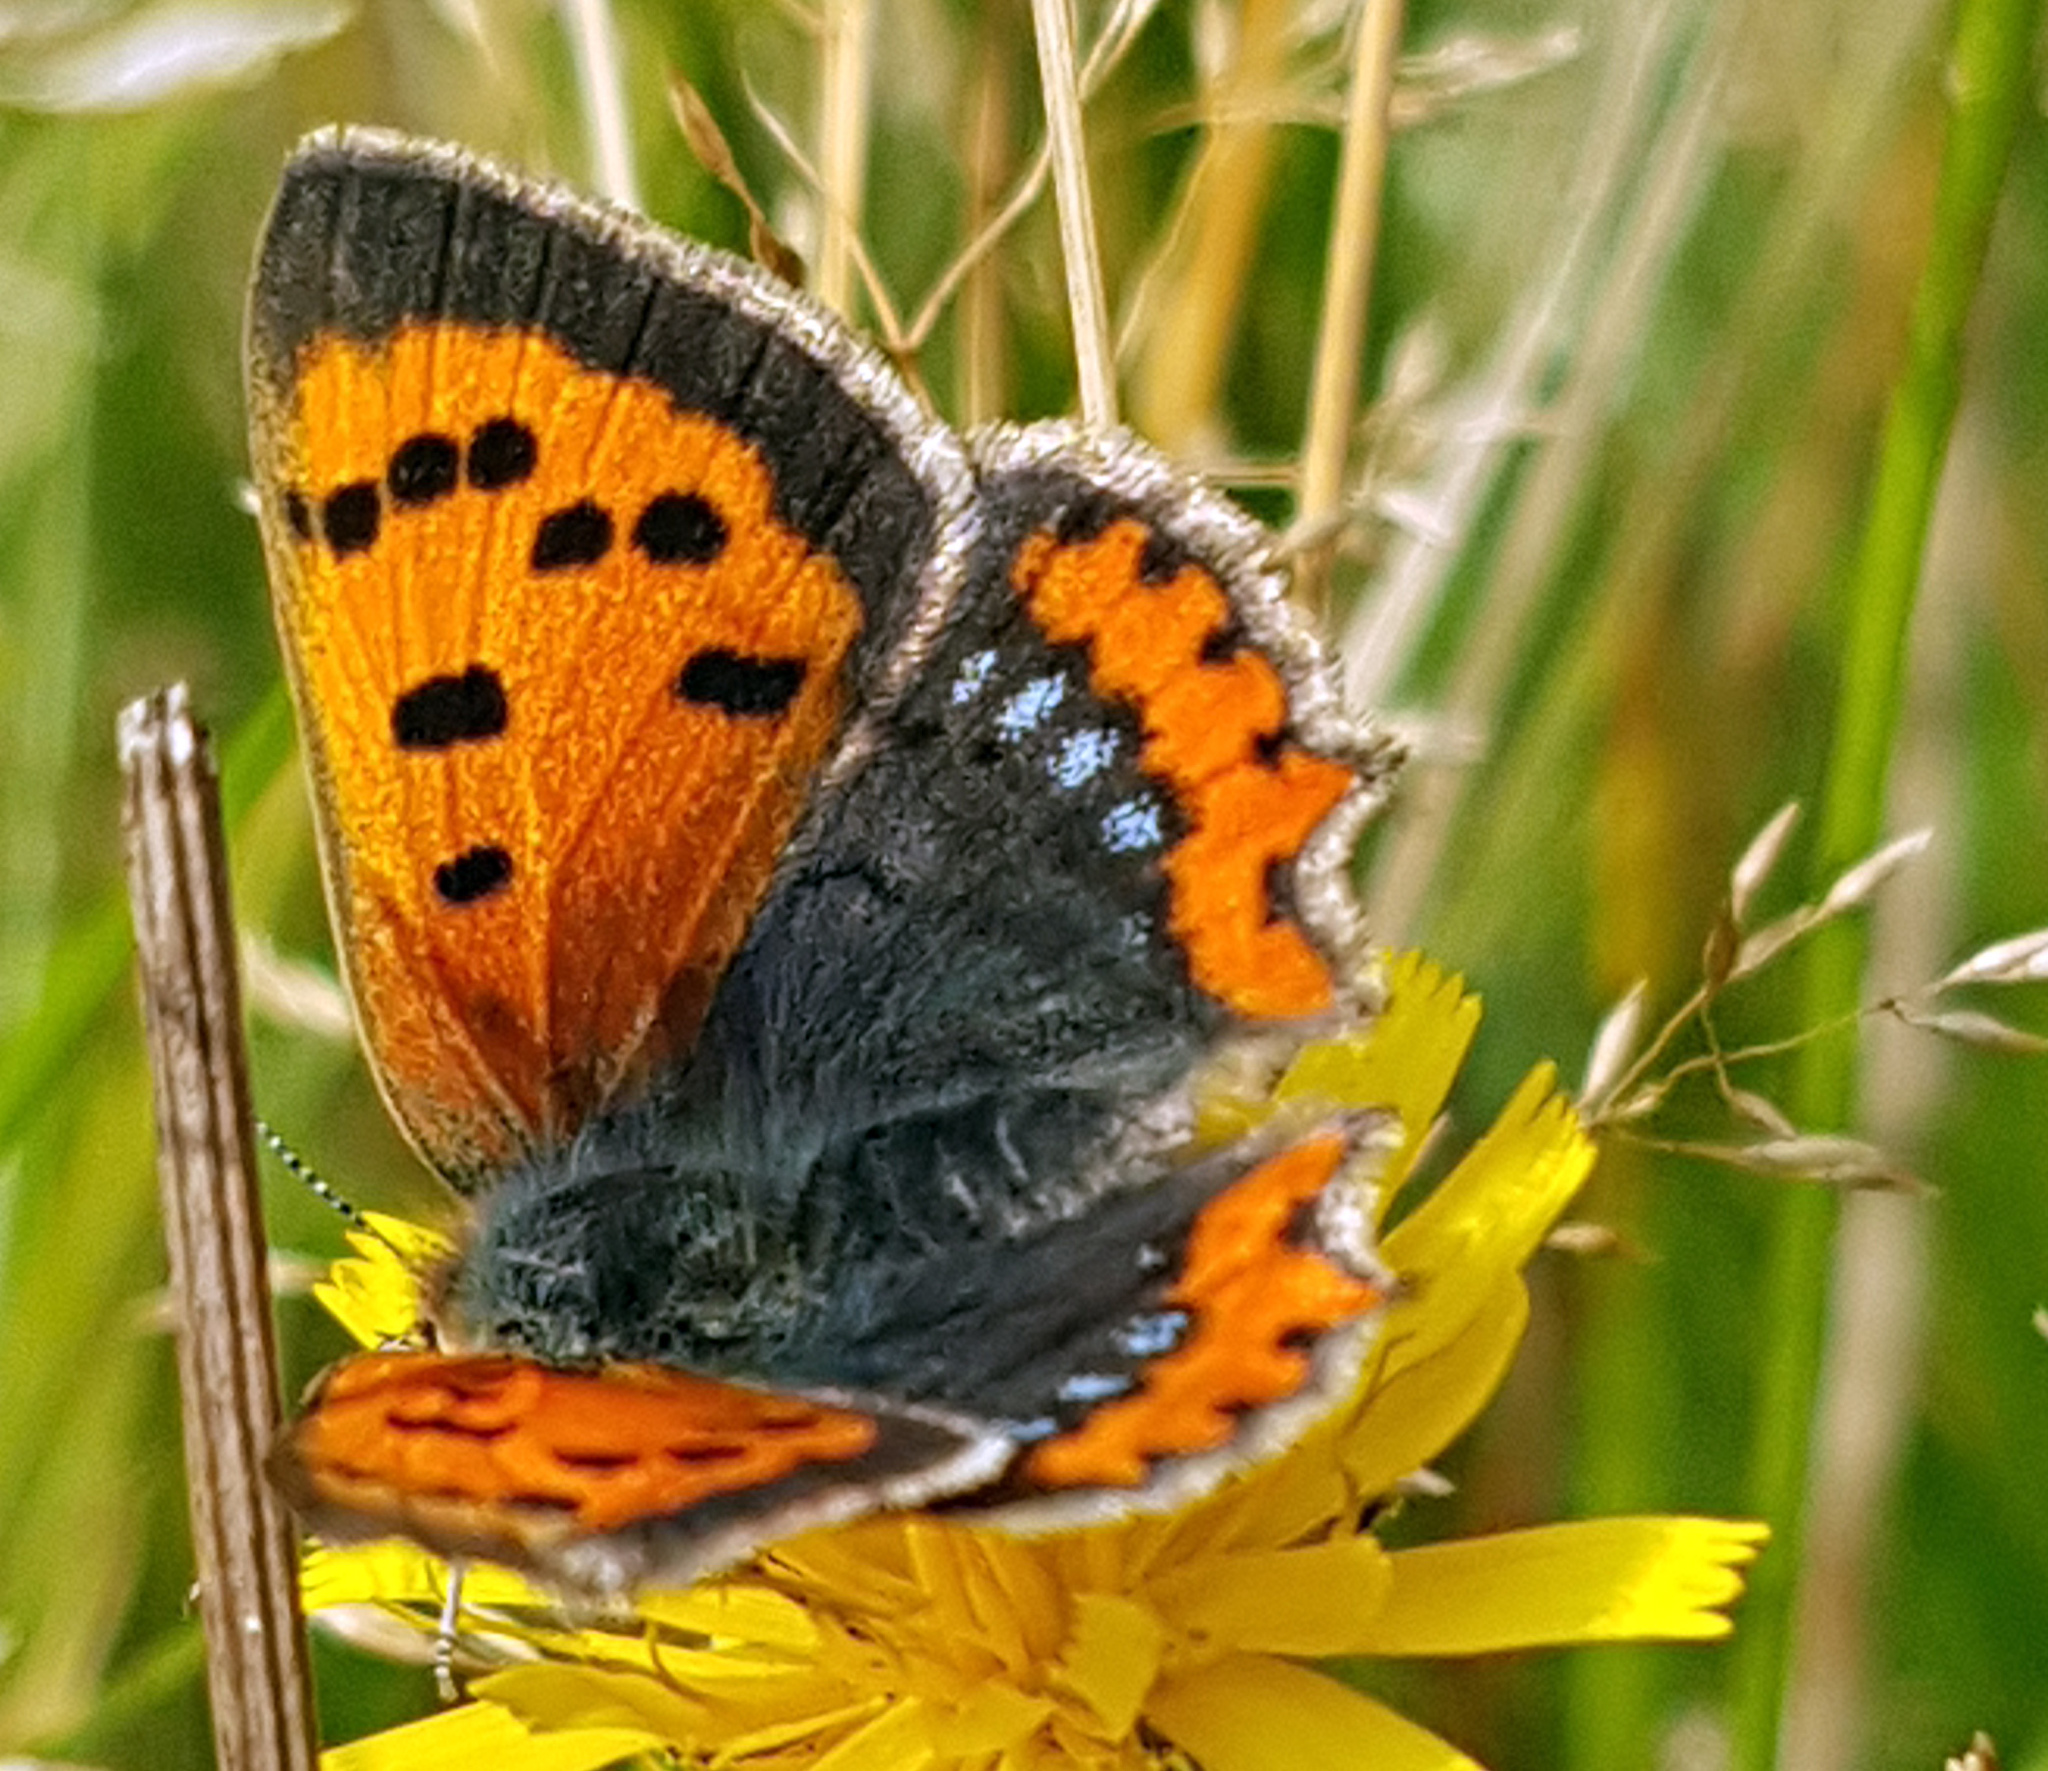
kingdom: Animalia
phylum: Arthropoda
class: Insecta
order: Lepidoptera
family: Lycaenidae
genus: Lycaena
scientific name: Lycaena phlaeas
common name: Small copper
